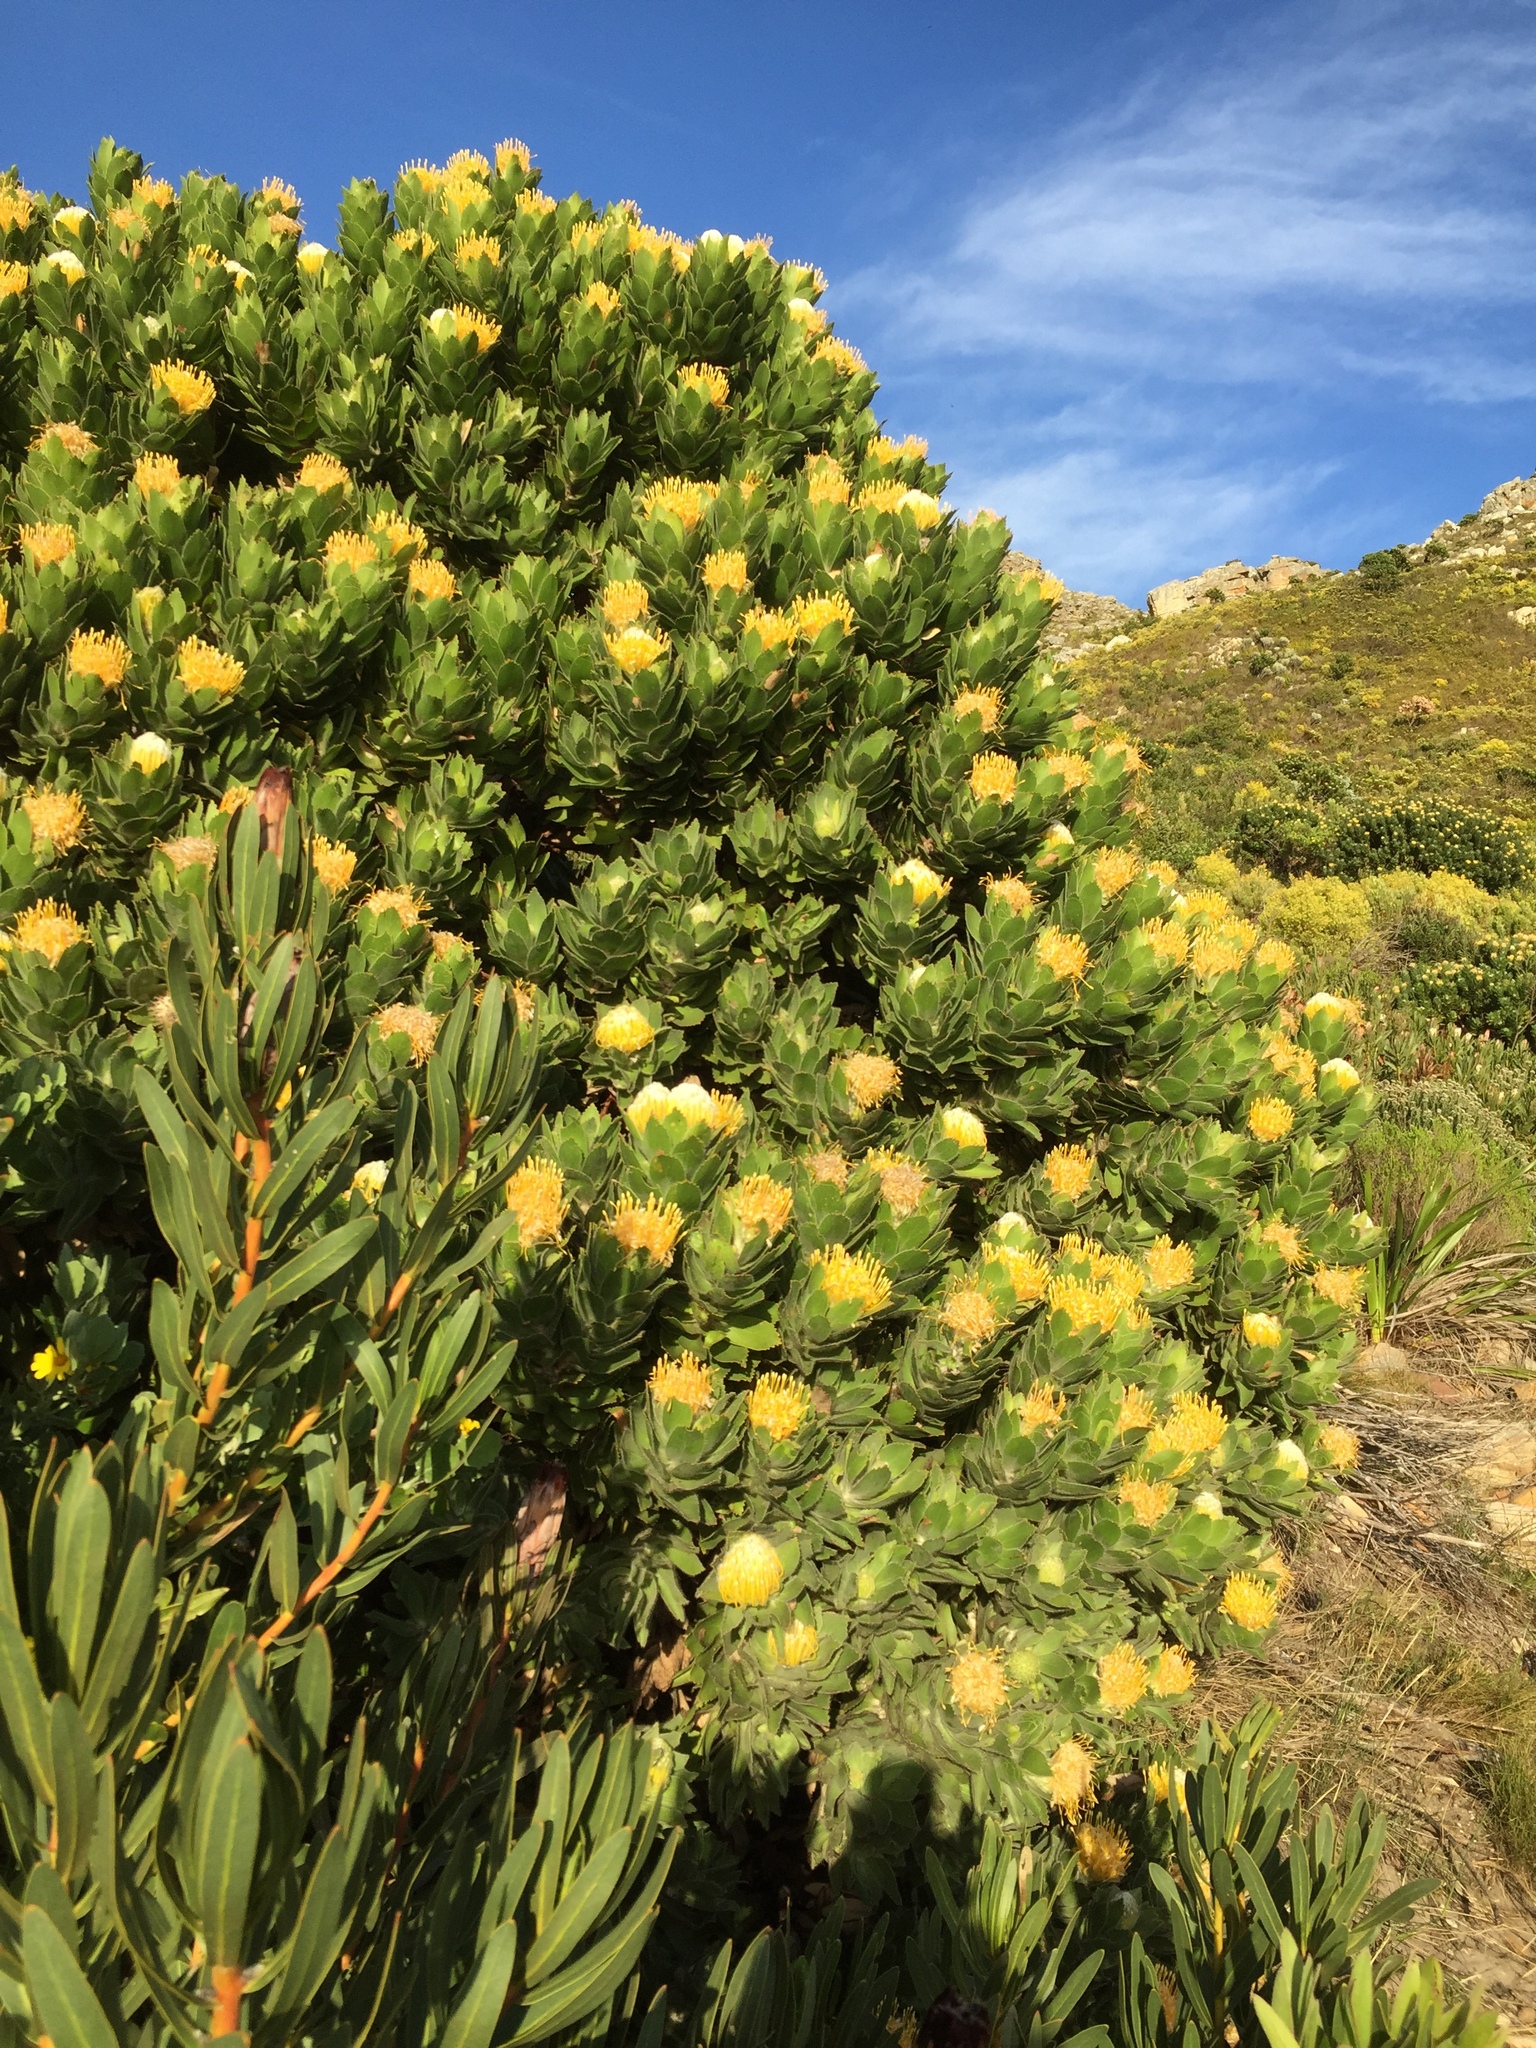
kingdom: Plantae
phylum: Tracheophyta
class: Magnoliopsida
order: Proteales
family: Proteaceae
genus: Leucospermum
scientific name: Leucospermum conocarpodendron
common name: Tree pincushion
